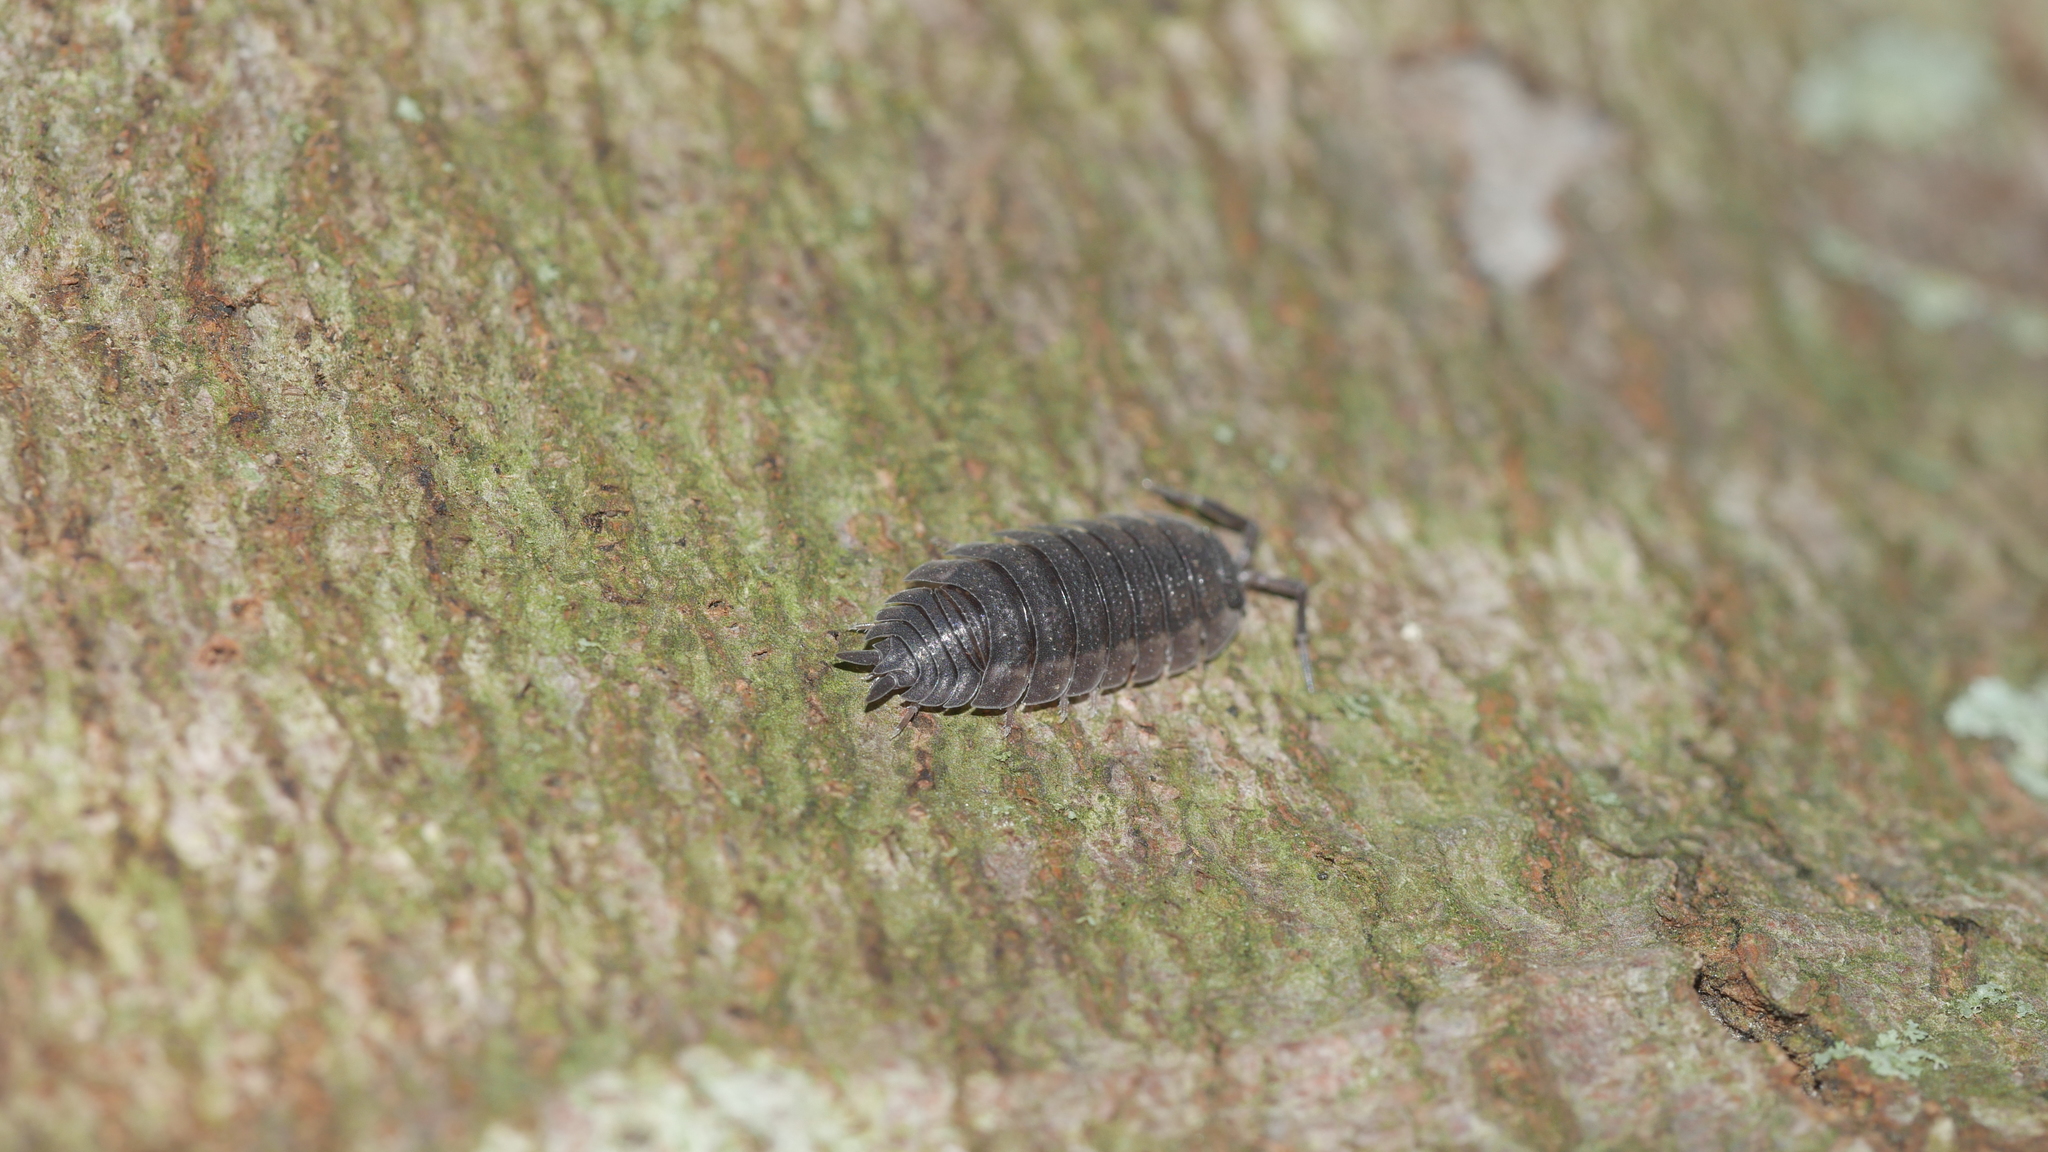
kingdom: Animalia
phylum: Arthropoda
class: Malacostraca
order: Isopoda
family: Porcellionidae
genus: Porcellio
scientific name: Porcellio scaber
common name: Common rough woodlouse
